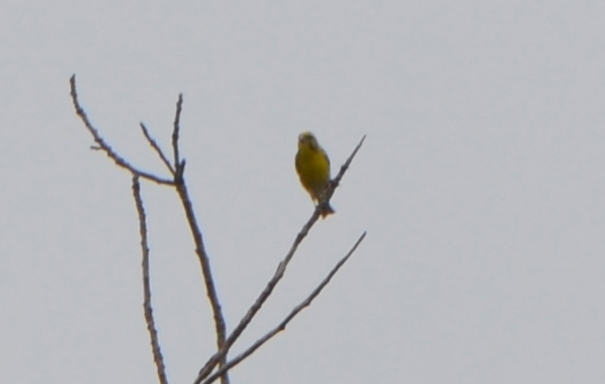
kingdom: Animalia
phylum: Chordata
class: Aves
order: Passeriformes
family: Fringillidae
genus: Serinus
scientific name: Serinus serinus
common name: European serin
